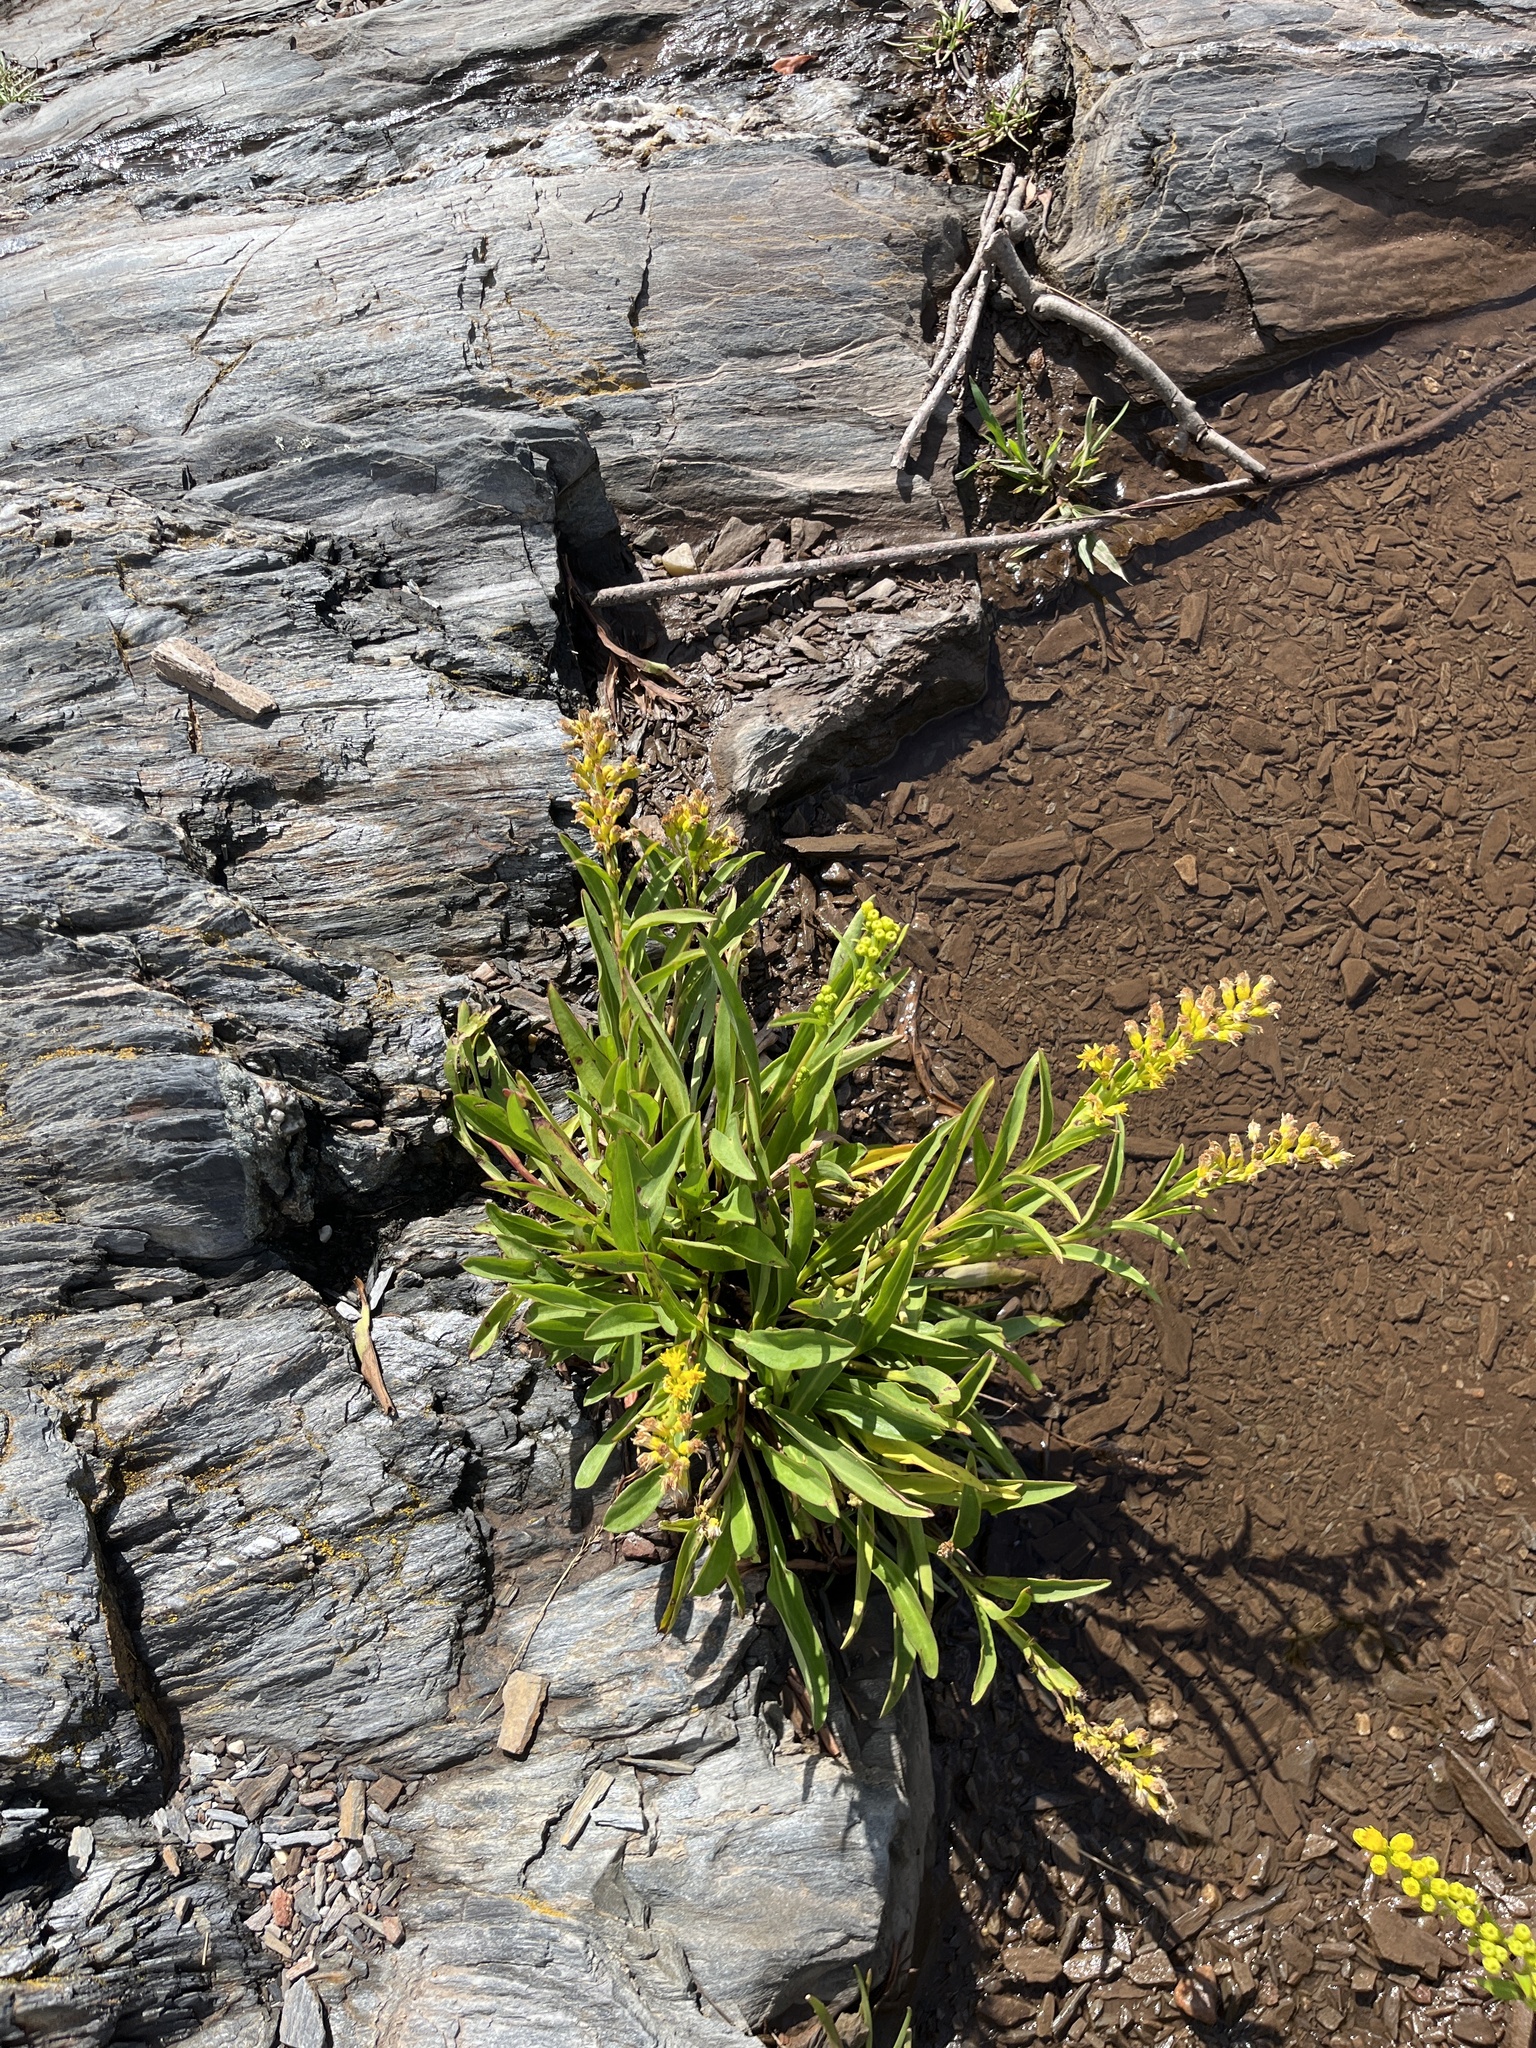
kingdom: Plantae
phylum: Tracheophyta
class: Magnoliopsida
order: Asterales
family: Asteraceae
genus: Solidago
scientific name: Solidago sempervirens
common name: Salt-marsh goldenrod
